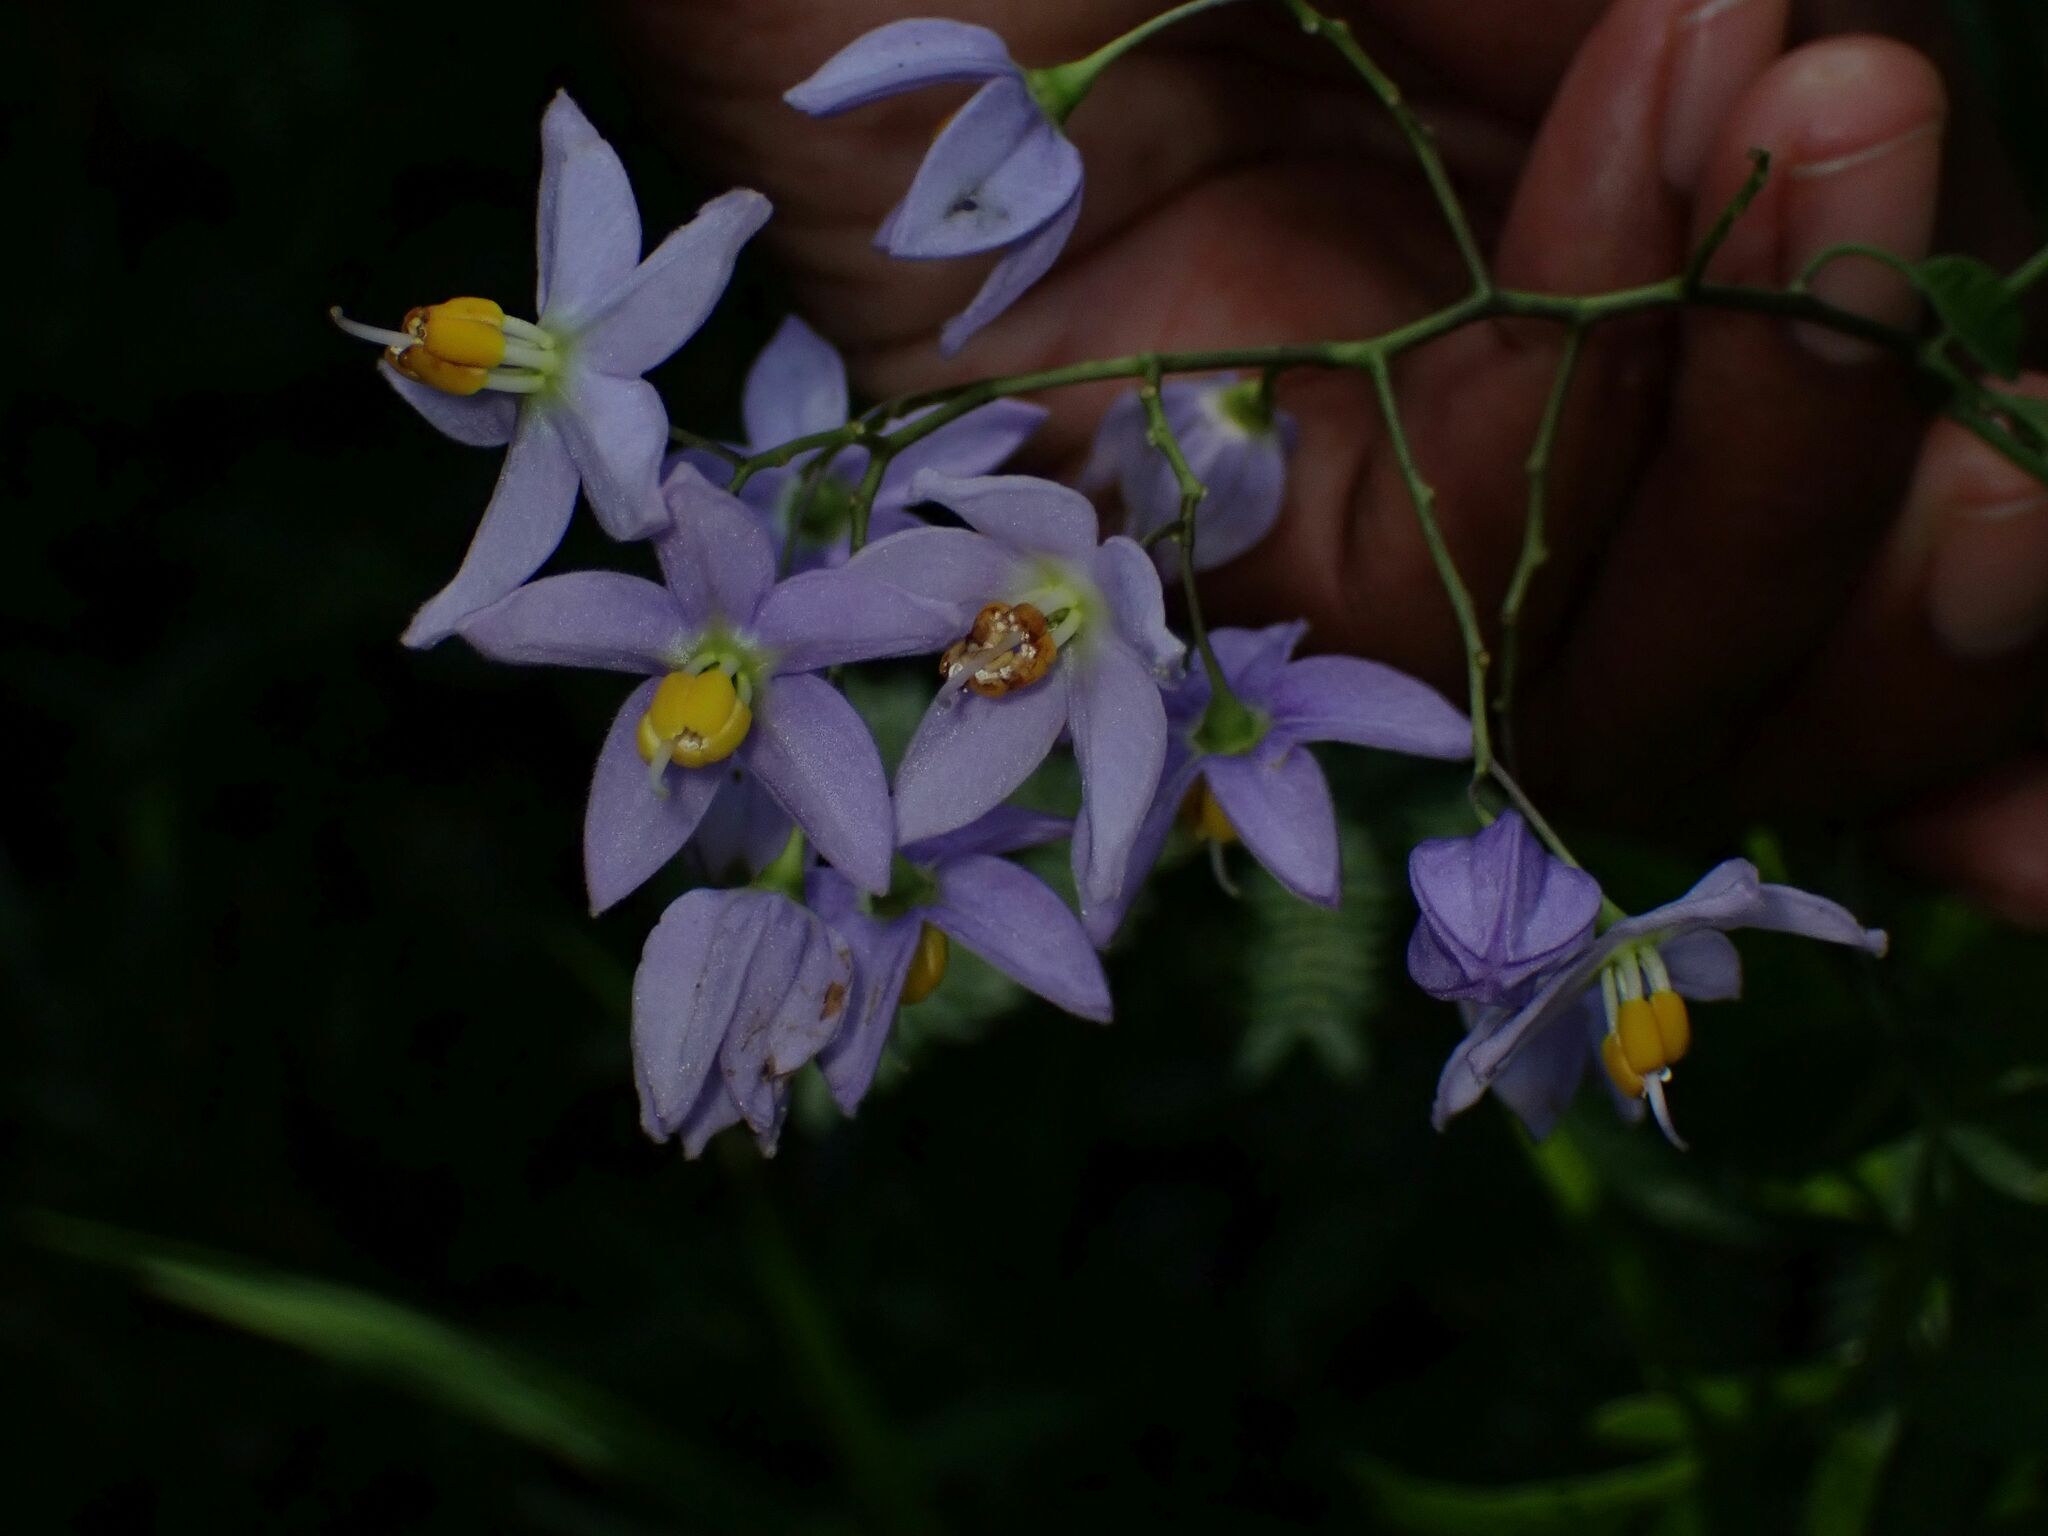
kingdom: Plantae
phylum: Tracheophyta
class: Magnoliopsida
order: Solanales
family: Solanaceae
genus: Solanum
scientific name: Solanum seaforthianum
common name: Brazilian nightshade
